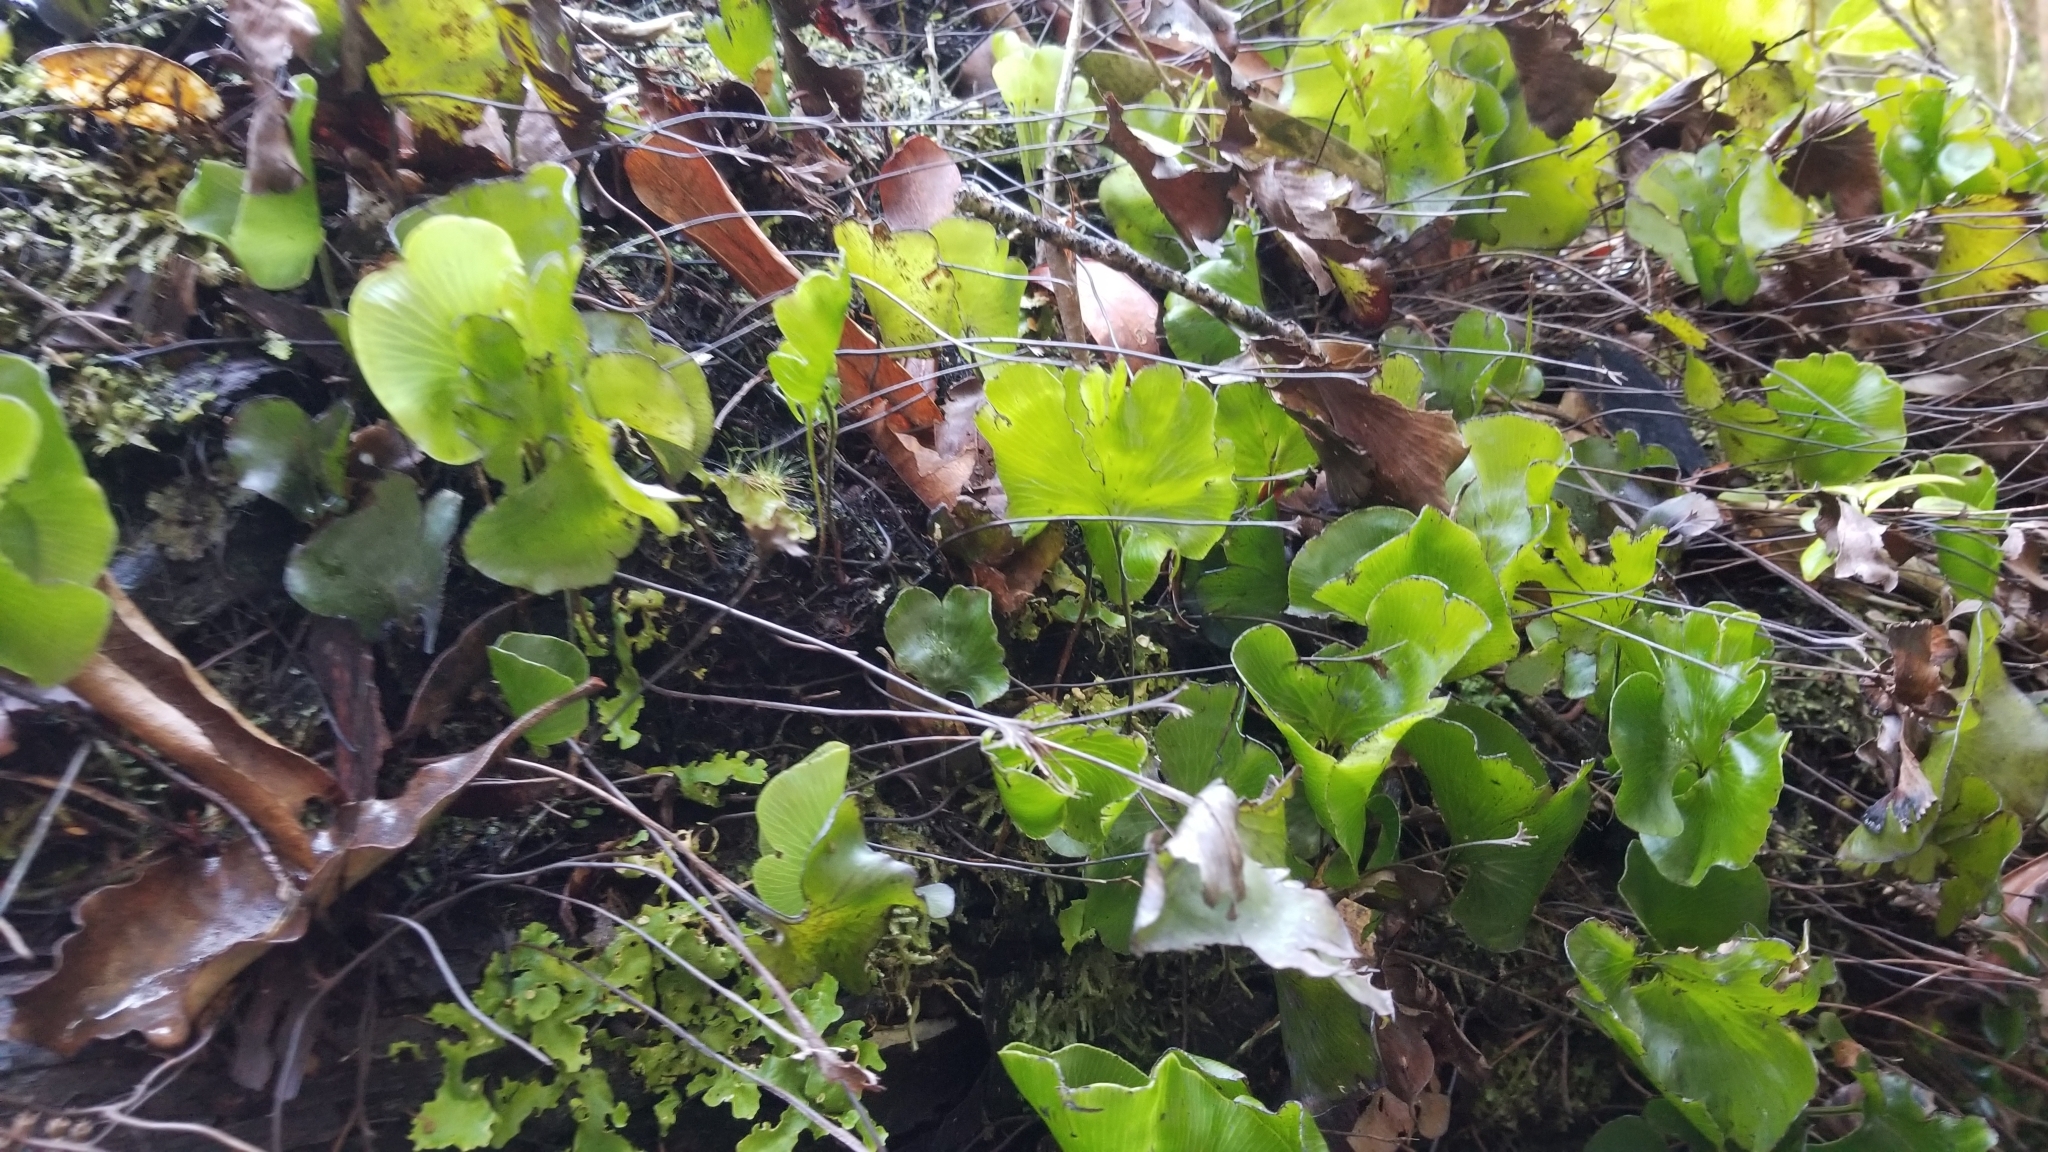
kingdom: Plantae
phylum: Tracheophyta
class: Polypodiopsida
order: Hymenophyllales
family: Hymenophyllaceae
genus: Hymenophyllum
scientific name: Hymenophyllum nephrophyllum
